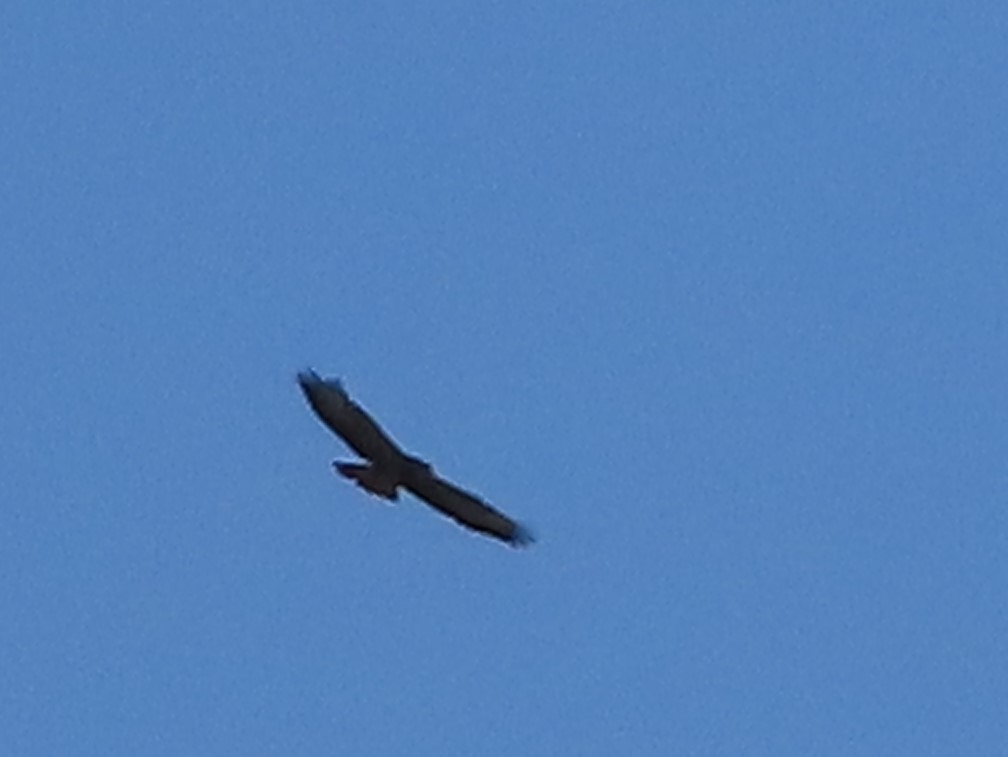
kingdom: Animalia
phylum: Chordata
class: Aves
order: Accipitriformes
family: Accipitridae
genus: Buteo
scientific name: Buteo buteo
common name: Common buzzard
